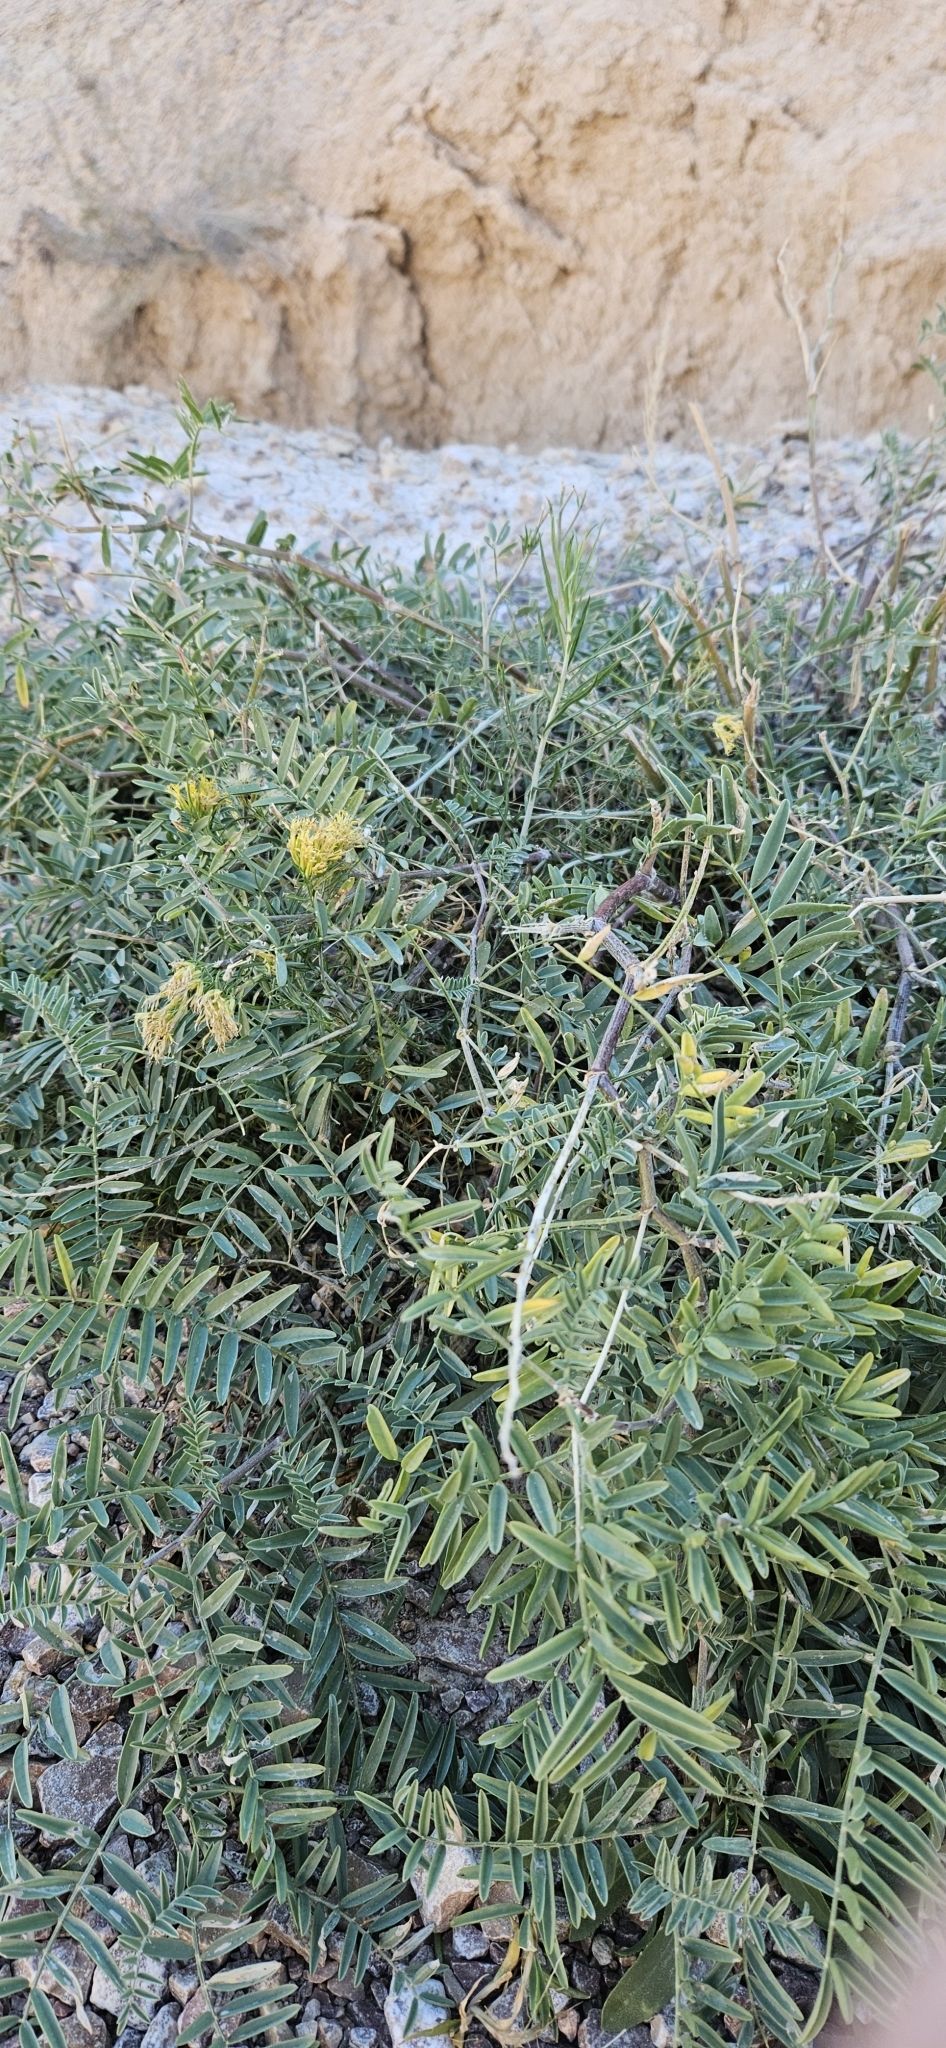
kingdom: Plantae
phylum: Tracheophyta
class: Magnoliopsida
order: Fabales
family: Fabaceae
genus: Astragalus
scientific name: Astragalus racemosus
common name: Alkali milk-vetch
